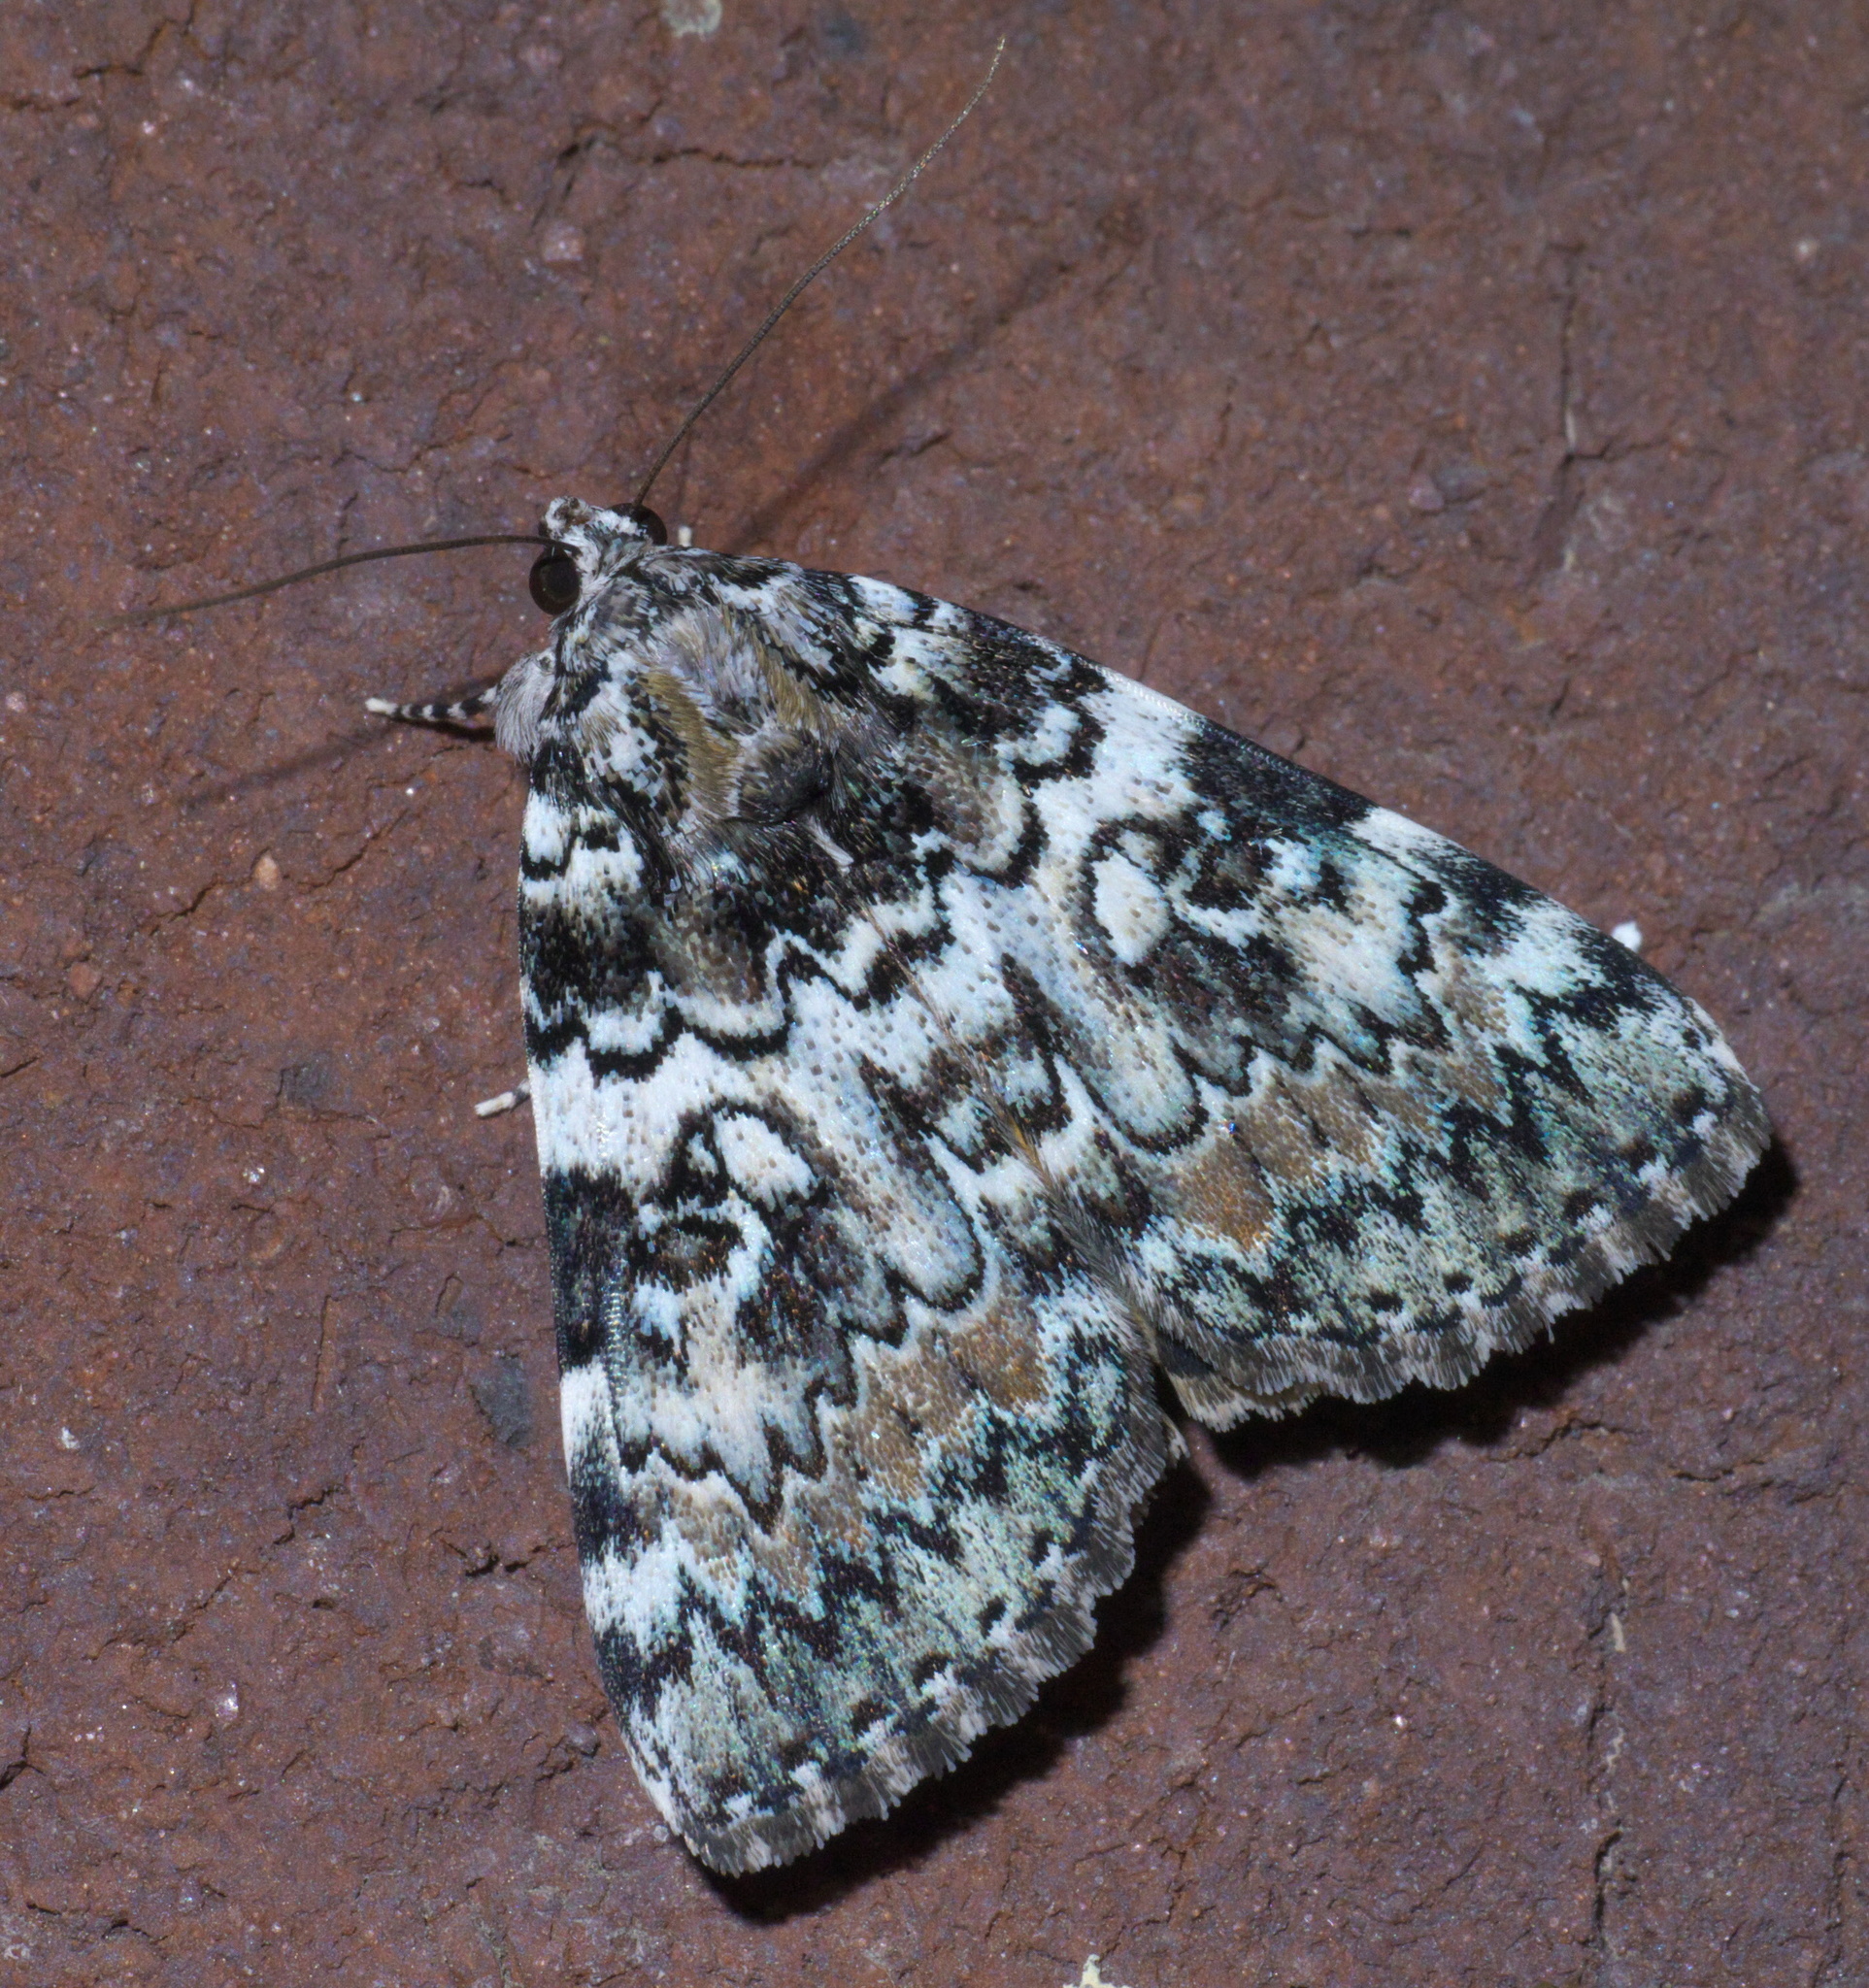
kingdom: Animalia
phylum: Arthropoda
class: Insecta
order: Lepidoptera
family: Erebidae
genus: Catocala
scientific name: Catocala connubialis
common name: Connubial underwing
